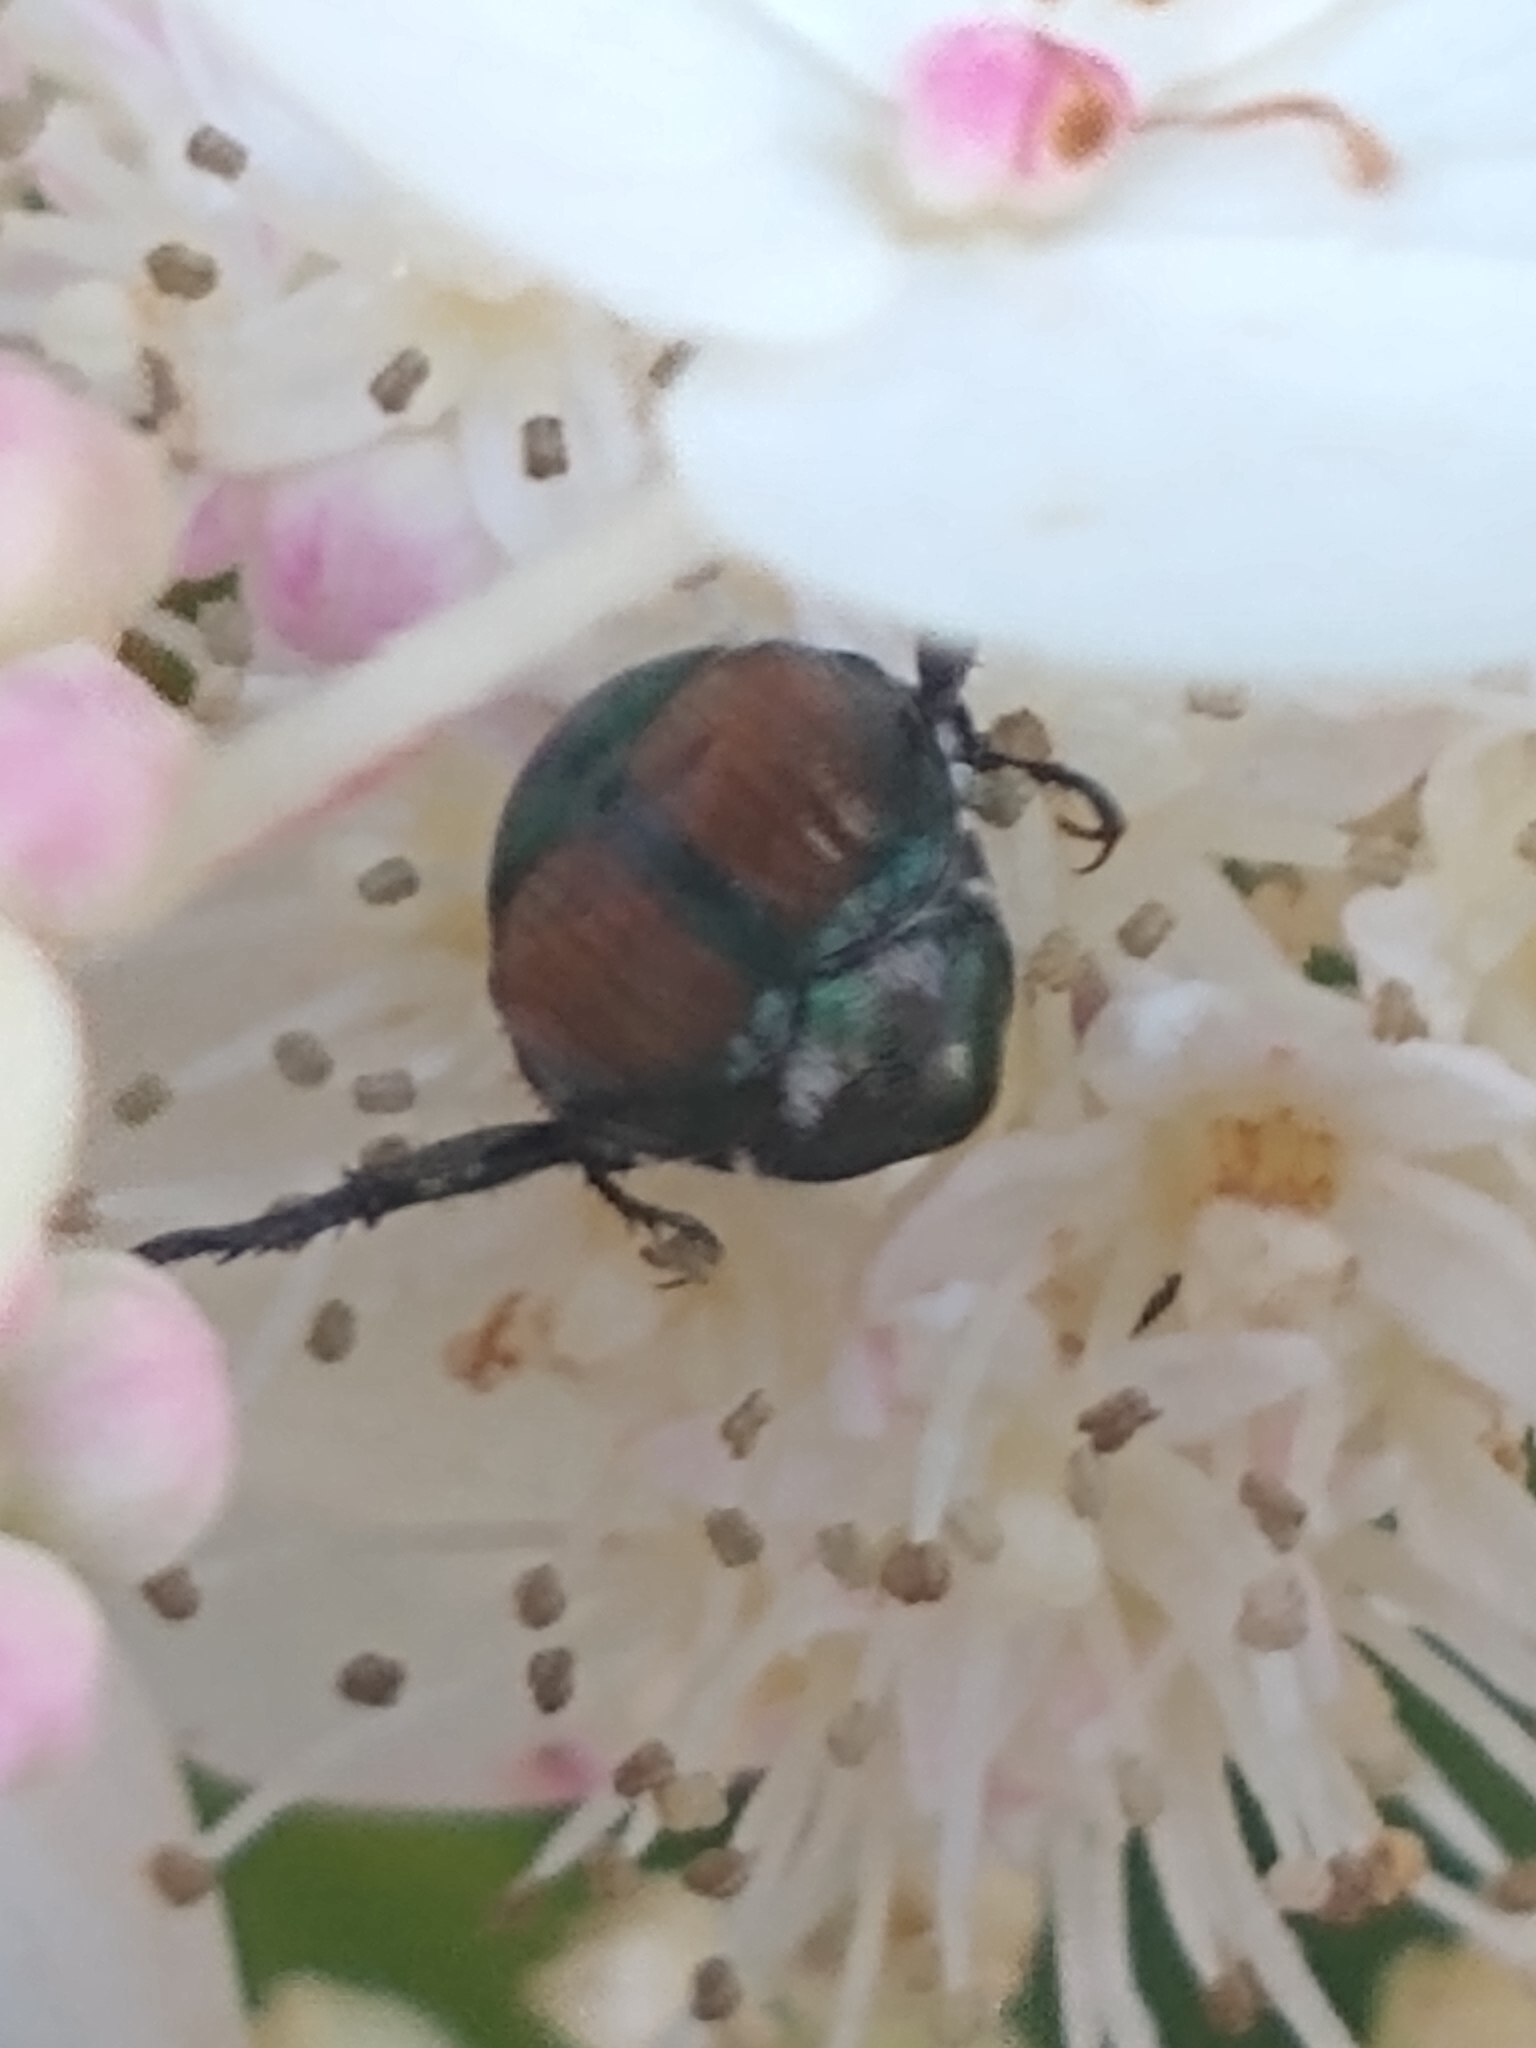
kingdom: Animalia
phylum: Arthropoda
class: Insecta
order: Coleoptera
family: Scarabaeidae
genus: Popillia
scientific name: Popillia japonica
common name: Japanese beetle
